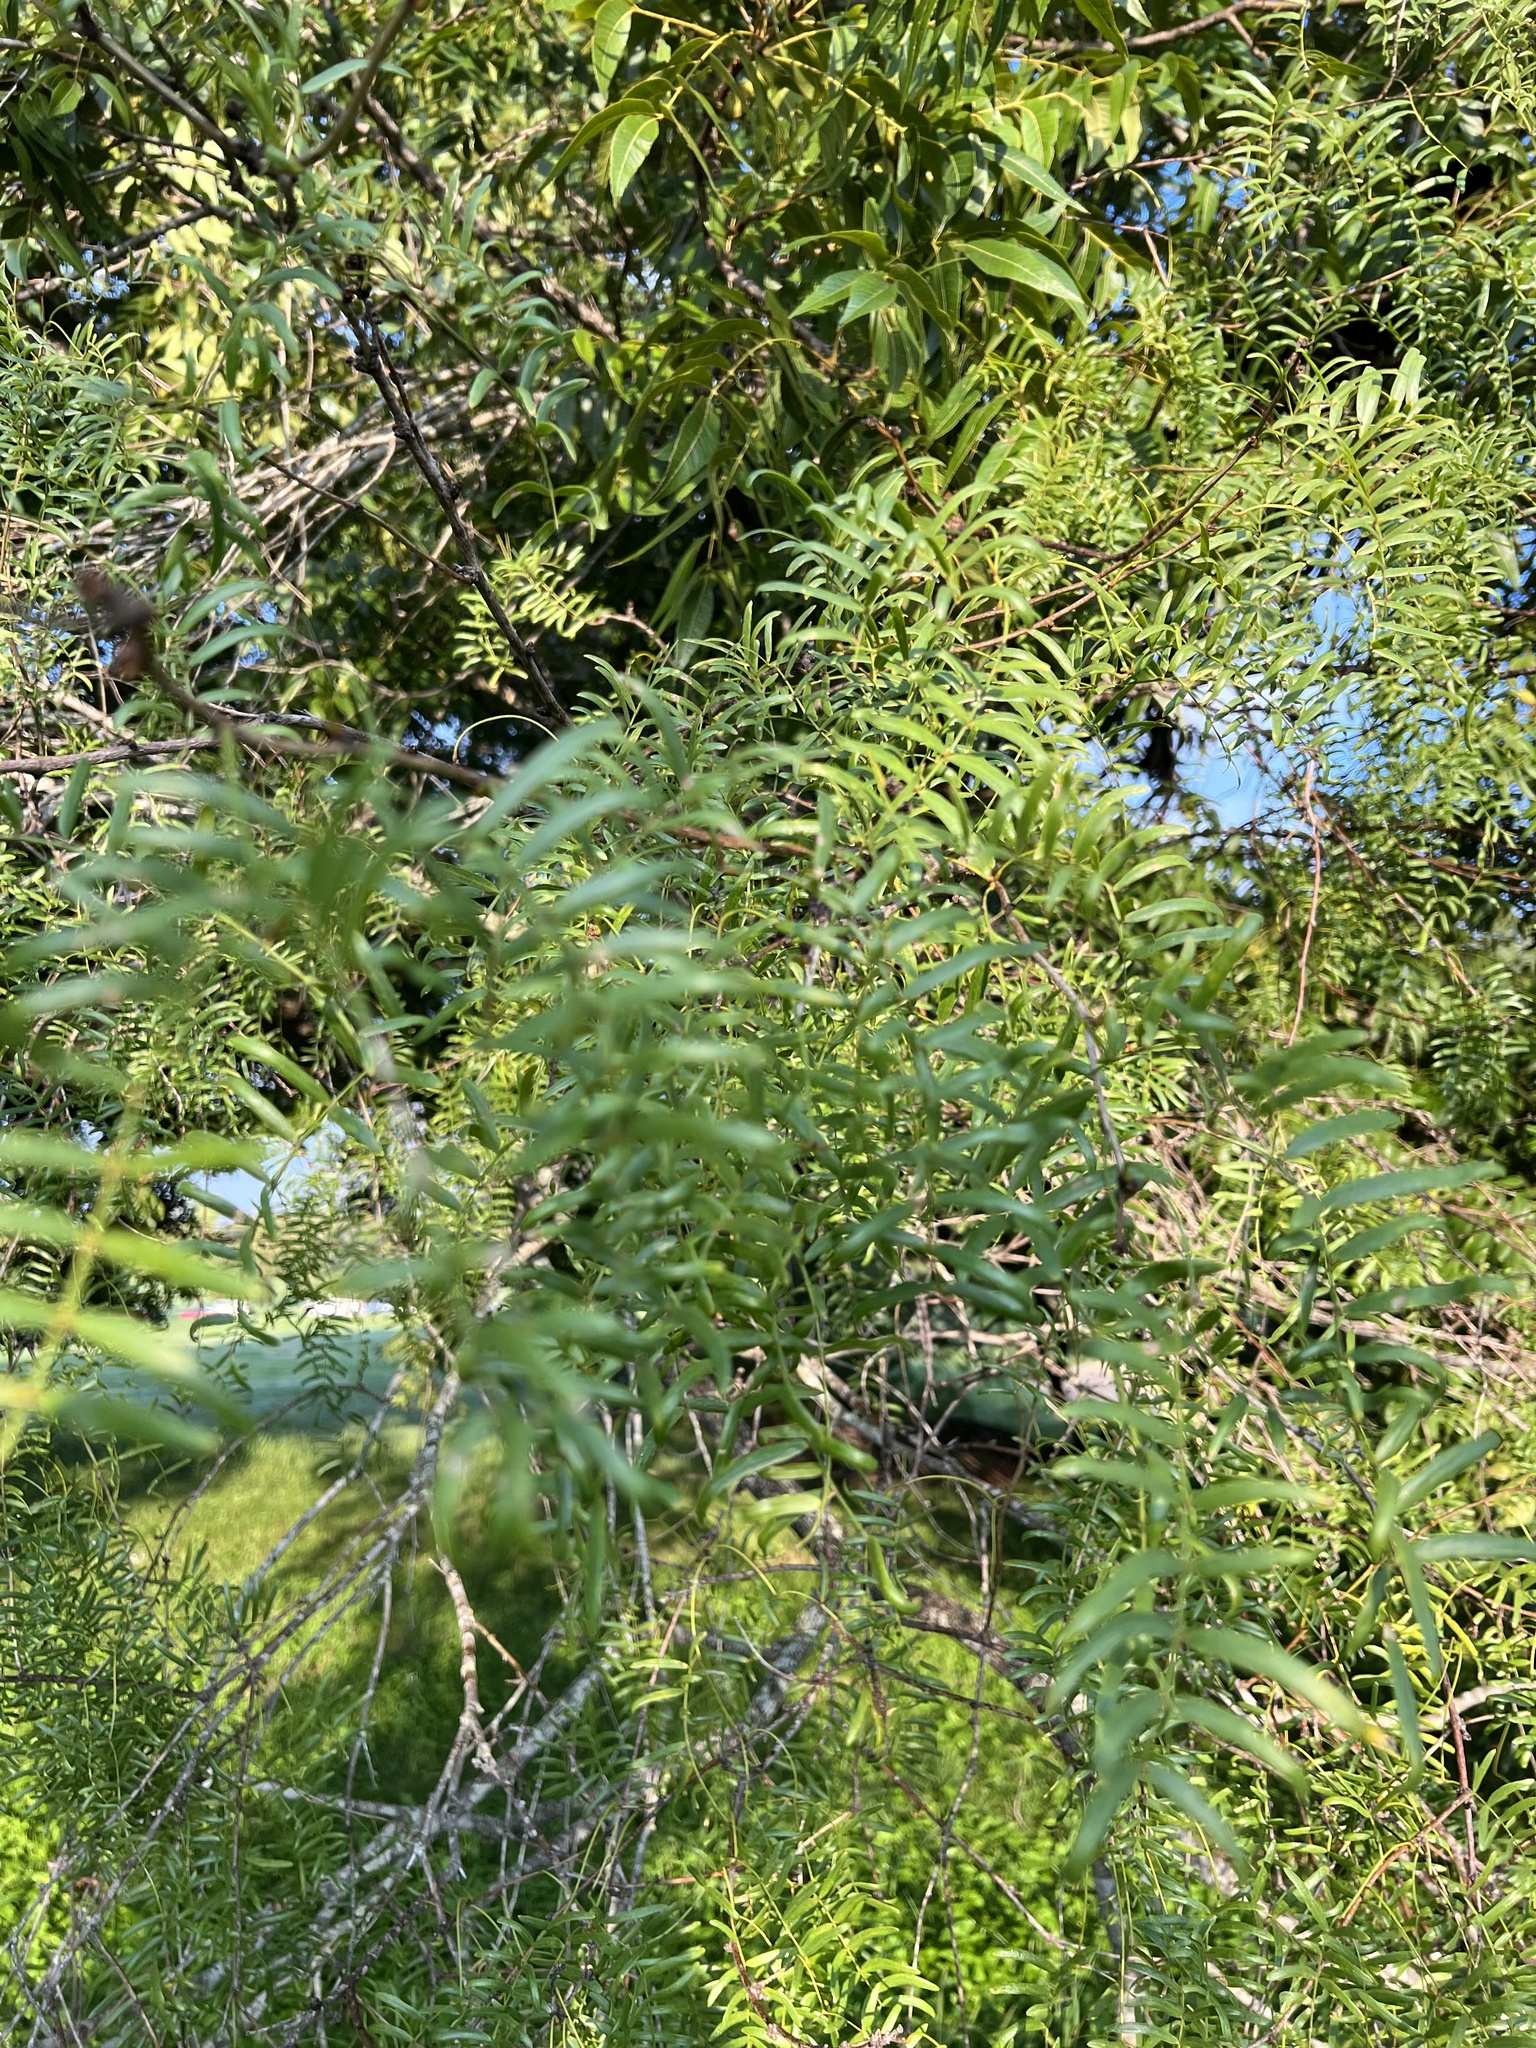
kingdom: Plantae
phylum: Tracheophyta
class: Magnoliopsida
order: Fabales
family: Fabaceae
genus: Prosopis
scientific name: Prosopis glandulosa
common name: Honey mesquite
